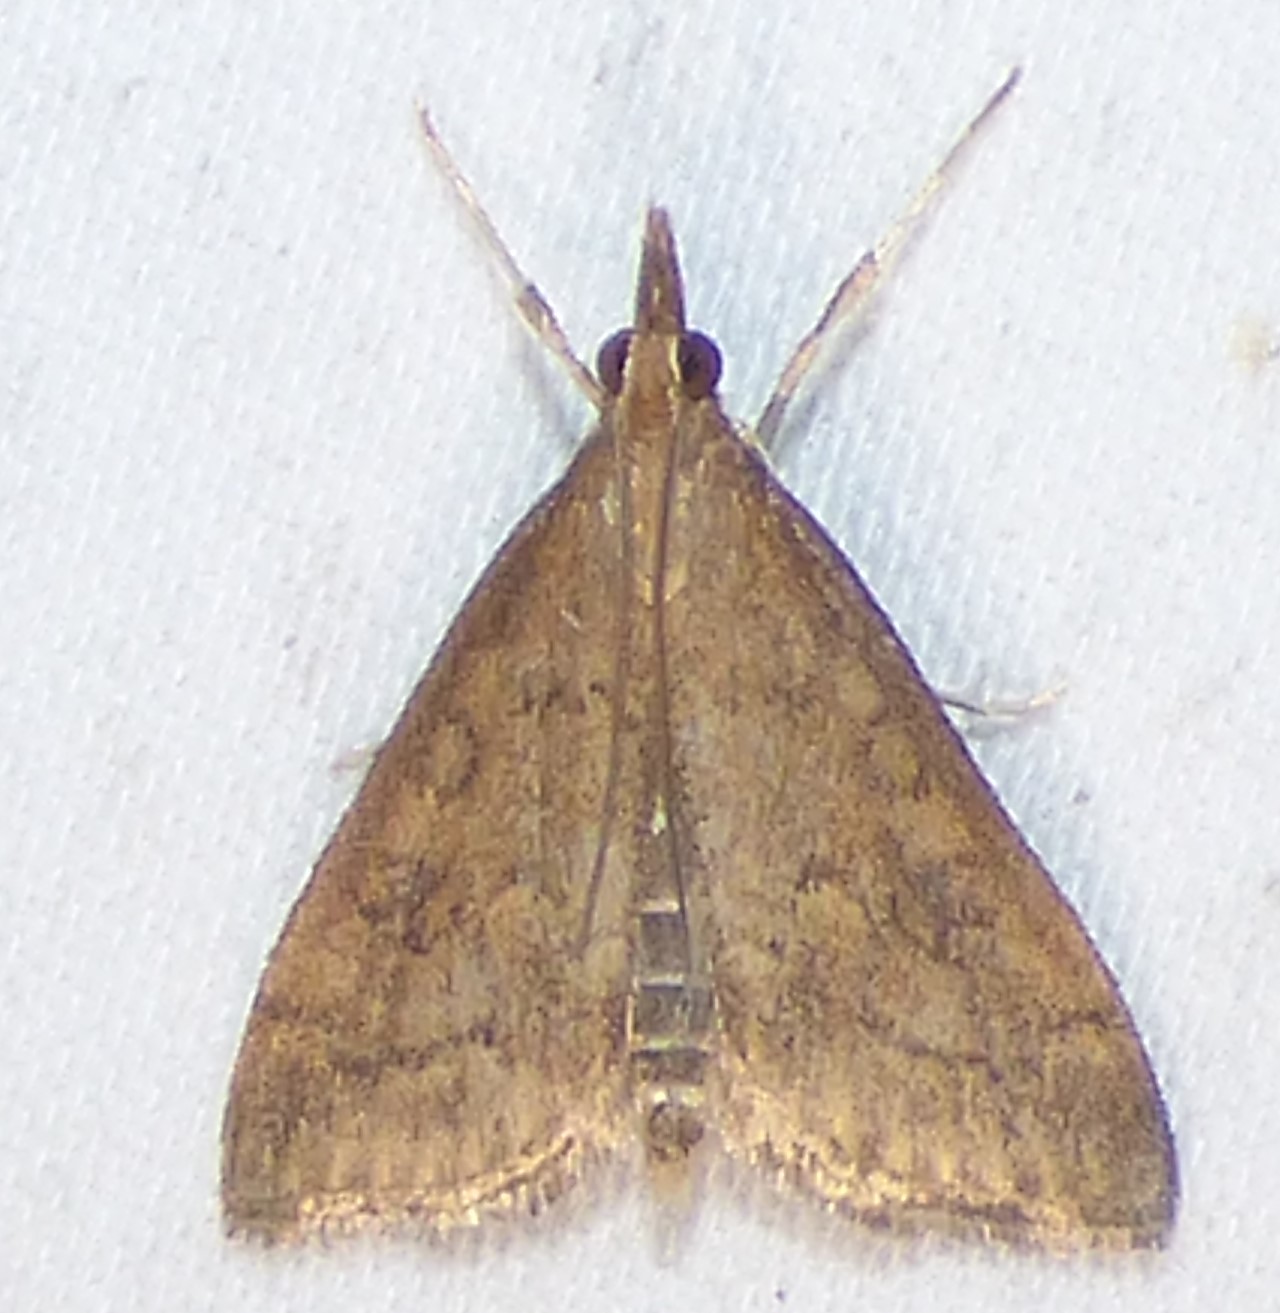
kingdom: Animalia
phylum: Arthropoda
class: Insecta
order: Lepidoptera
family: Crambidae
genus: Udea
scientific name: Udea rubigalis
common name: Celery leaftier moth
